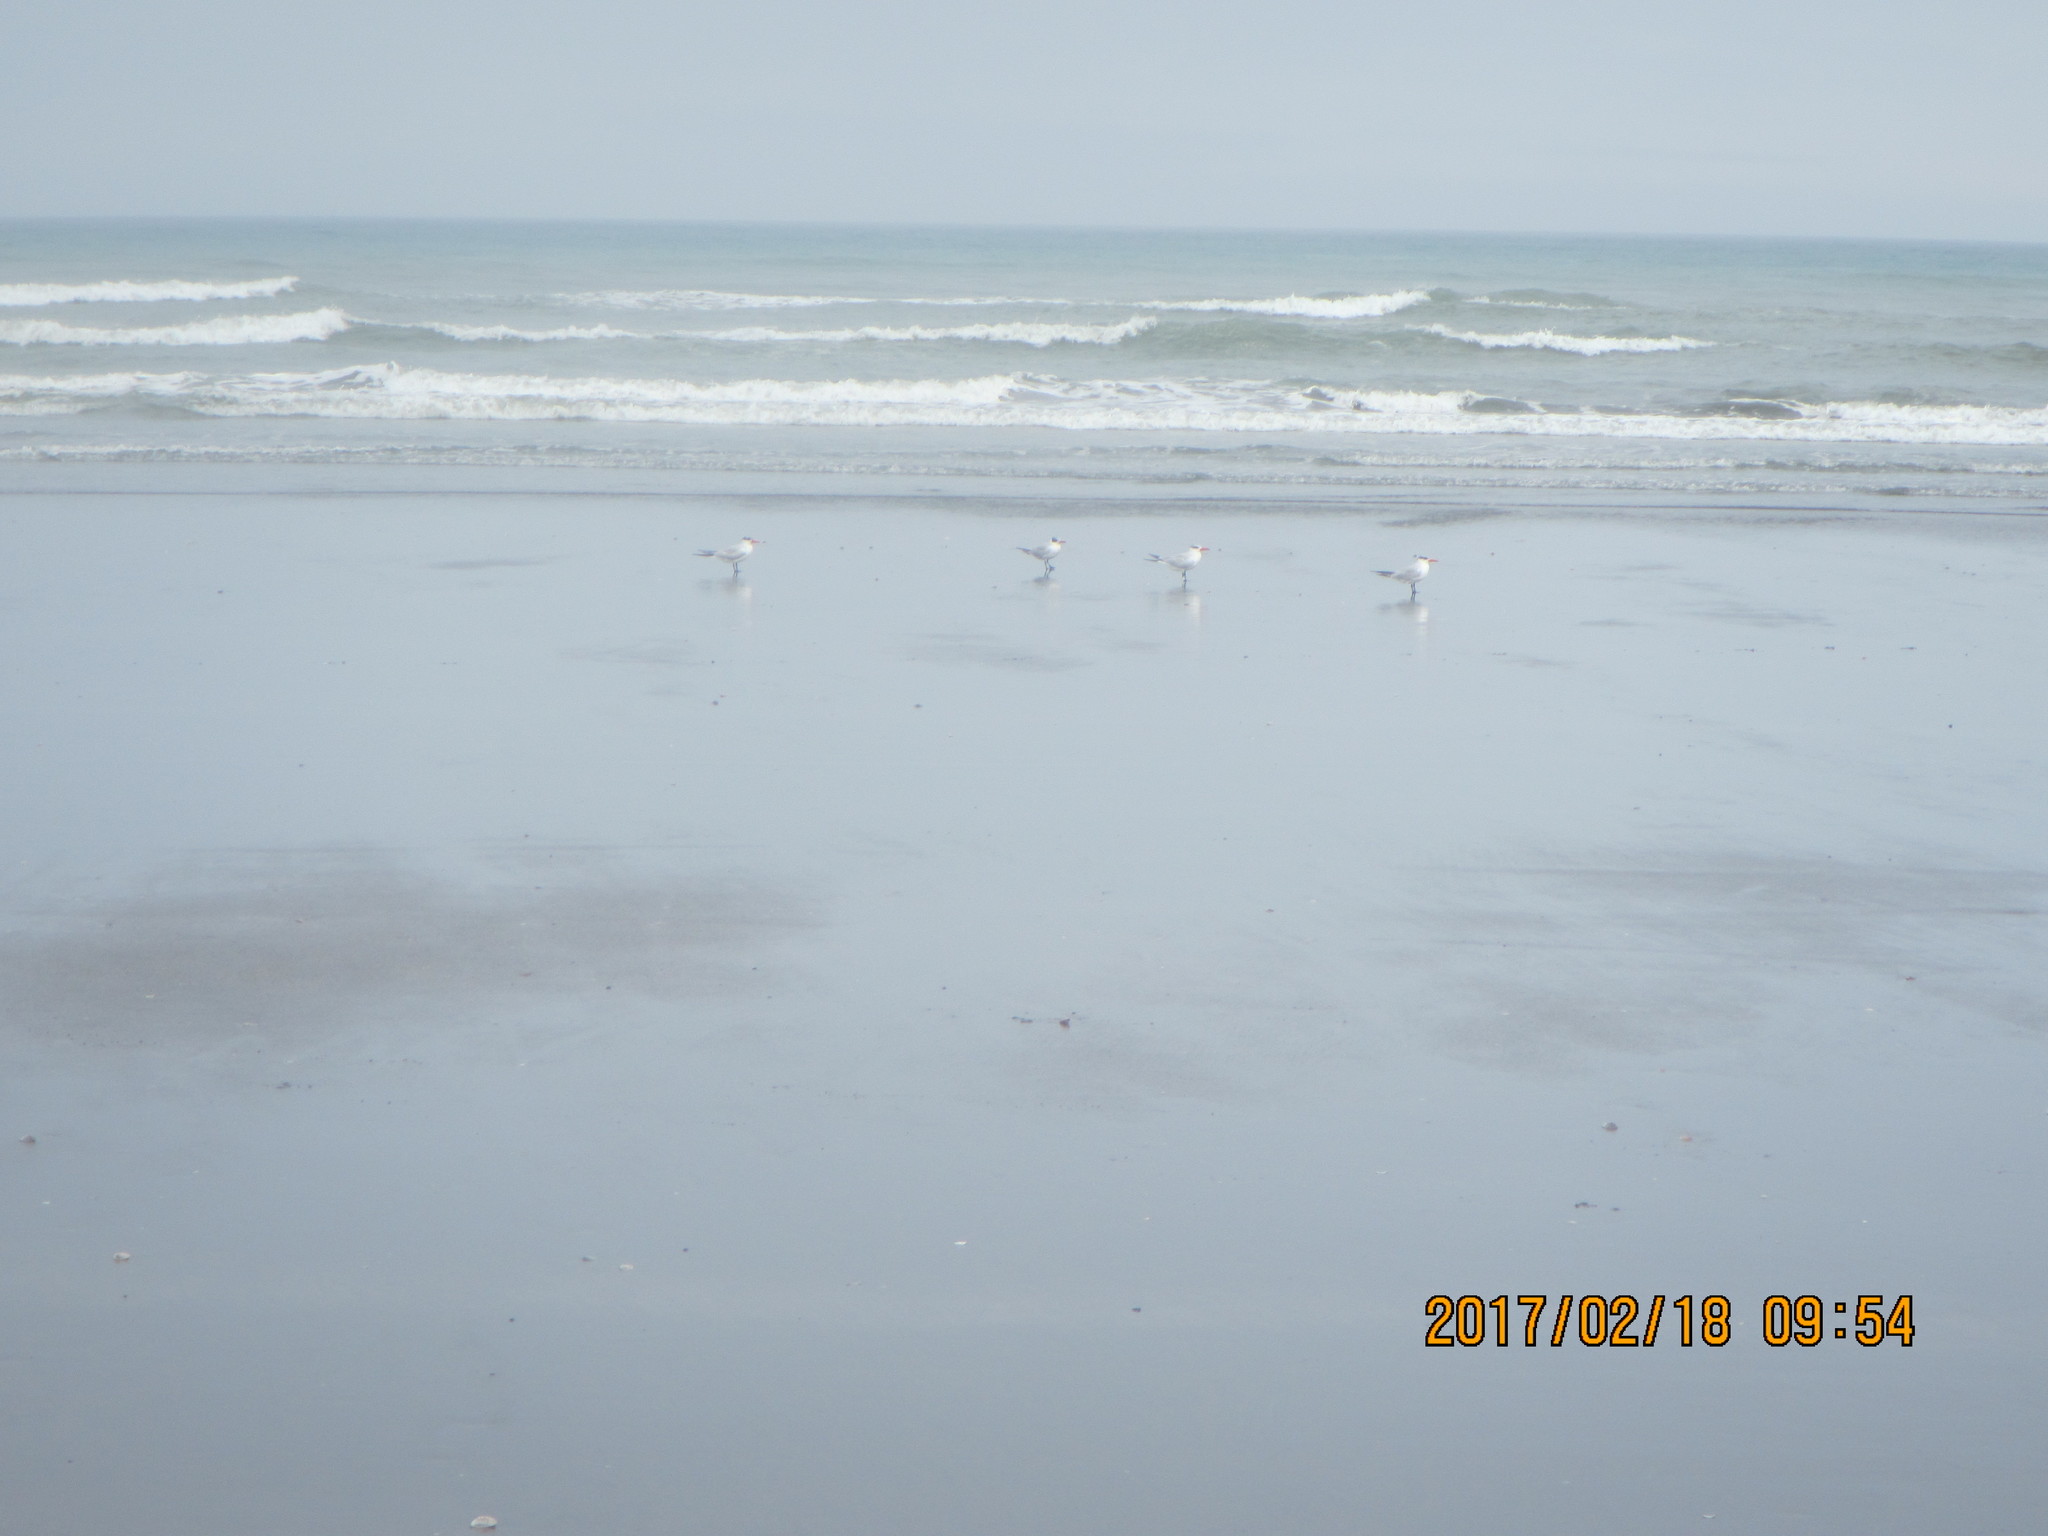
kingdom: Animalia
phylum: Chordata
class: Aves
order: Charadriiformes
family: Laridae
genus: Hydroprogne
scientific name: Hydroprogne caspia
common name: Caspian tern
